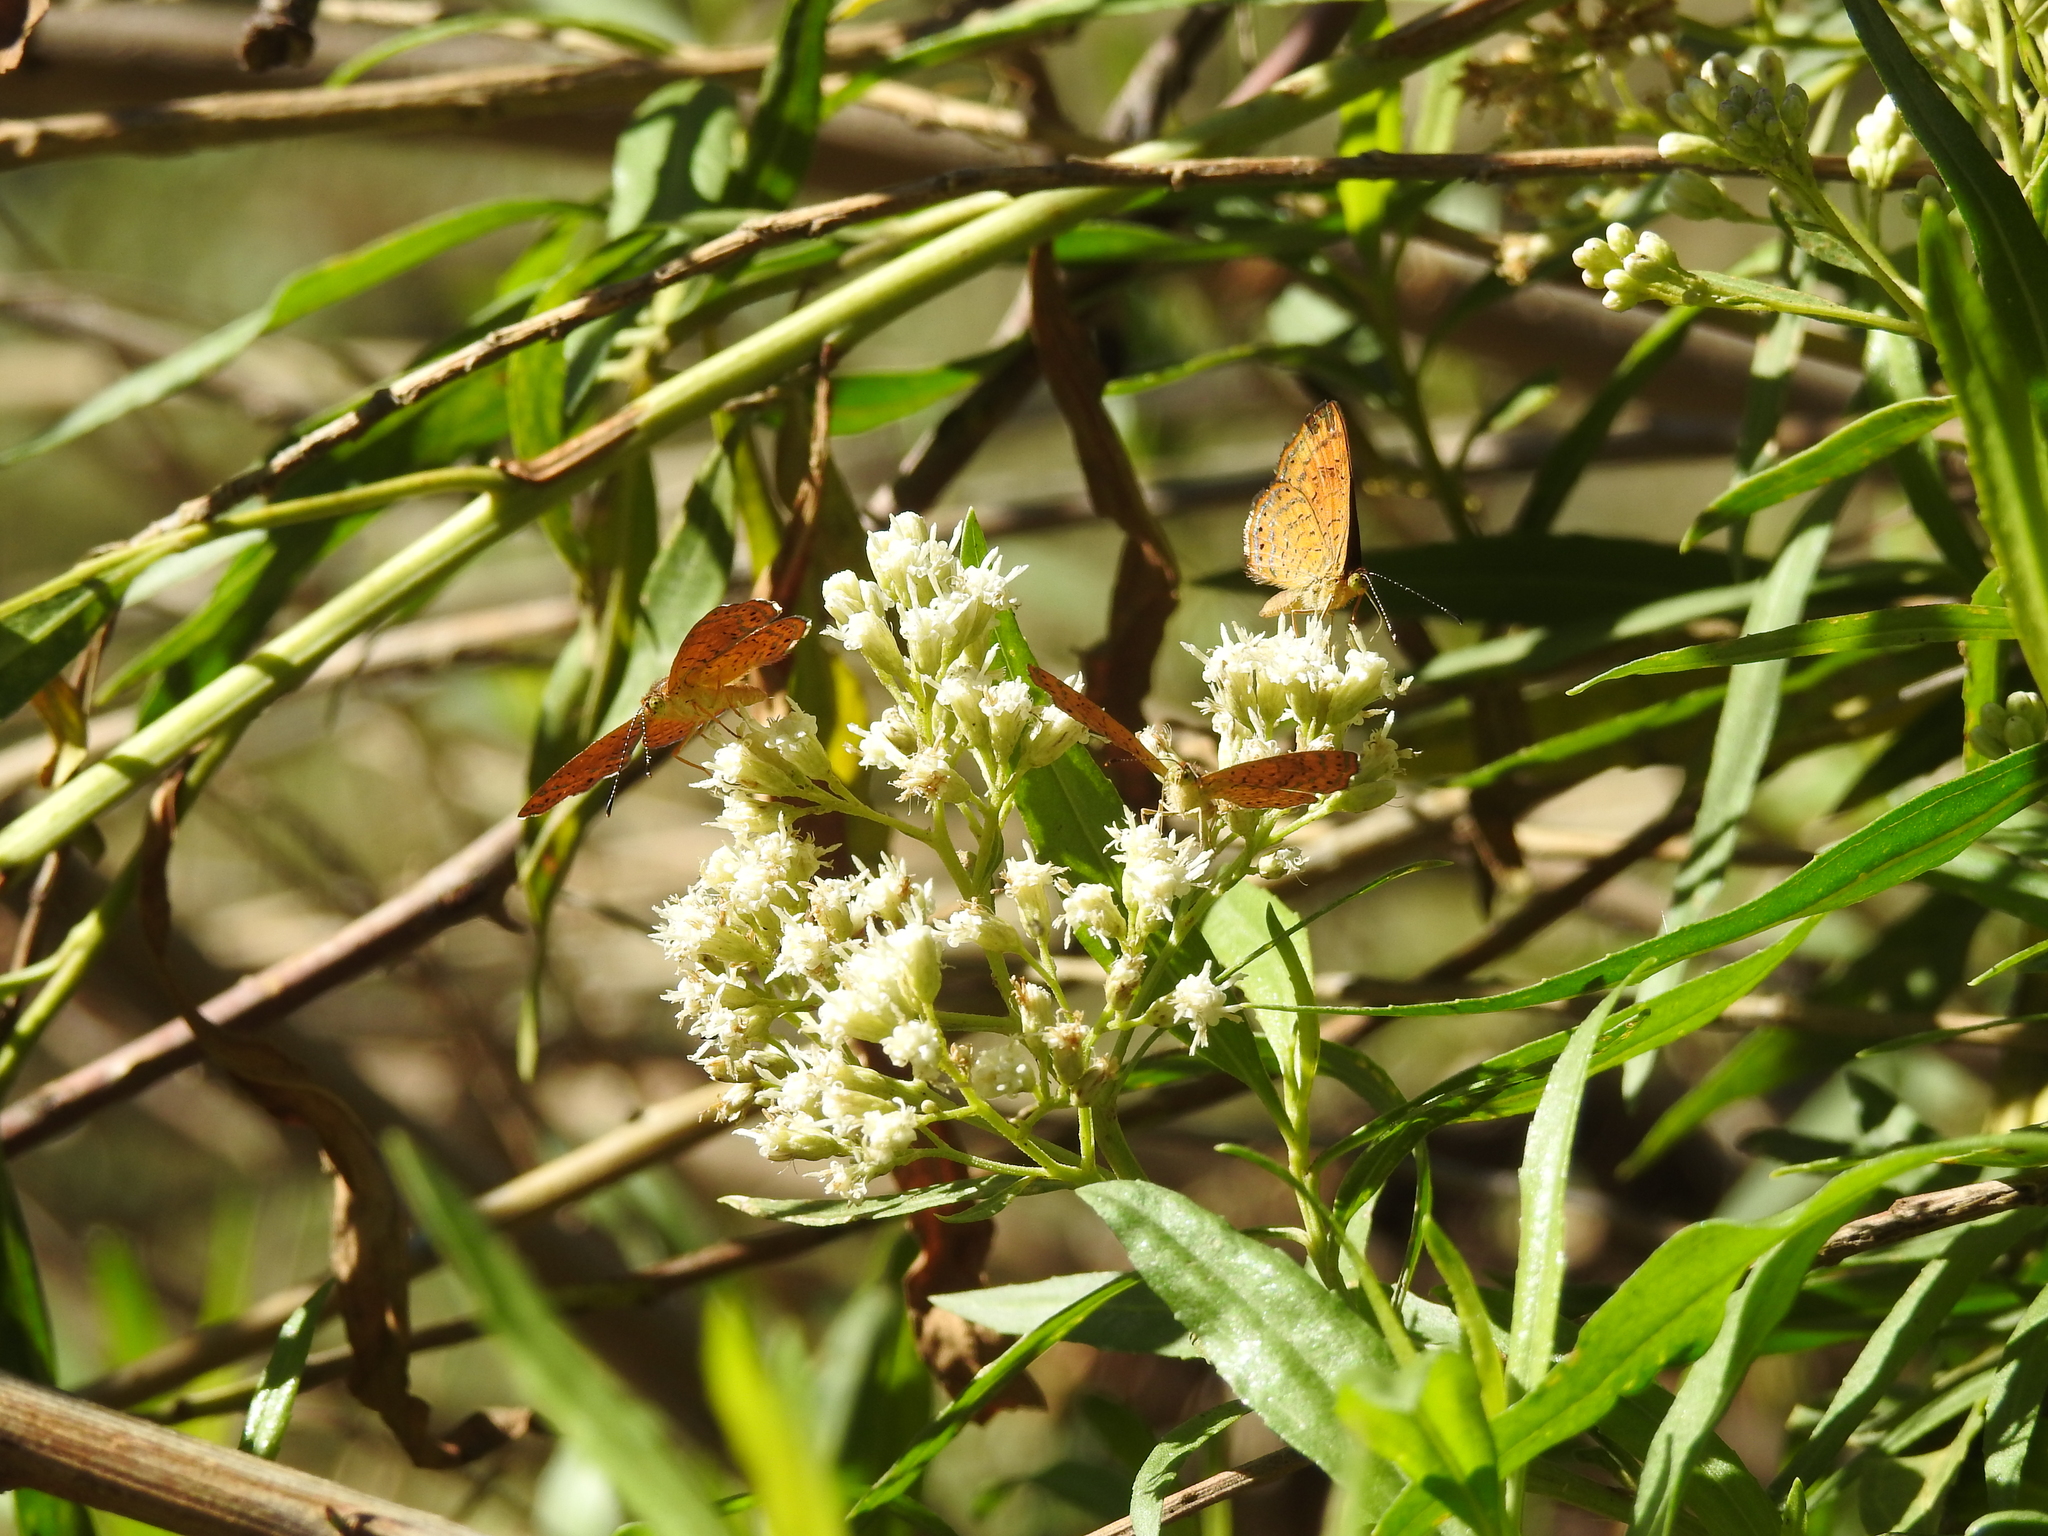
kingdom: Animalia
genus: Calephelis
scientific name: Calephelis nemesis
